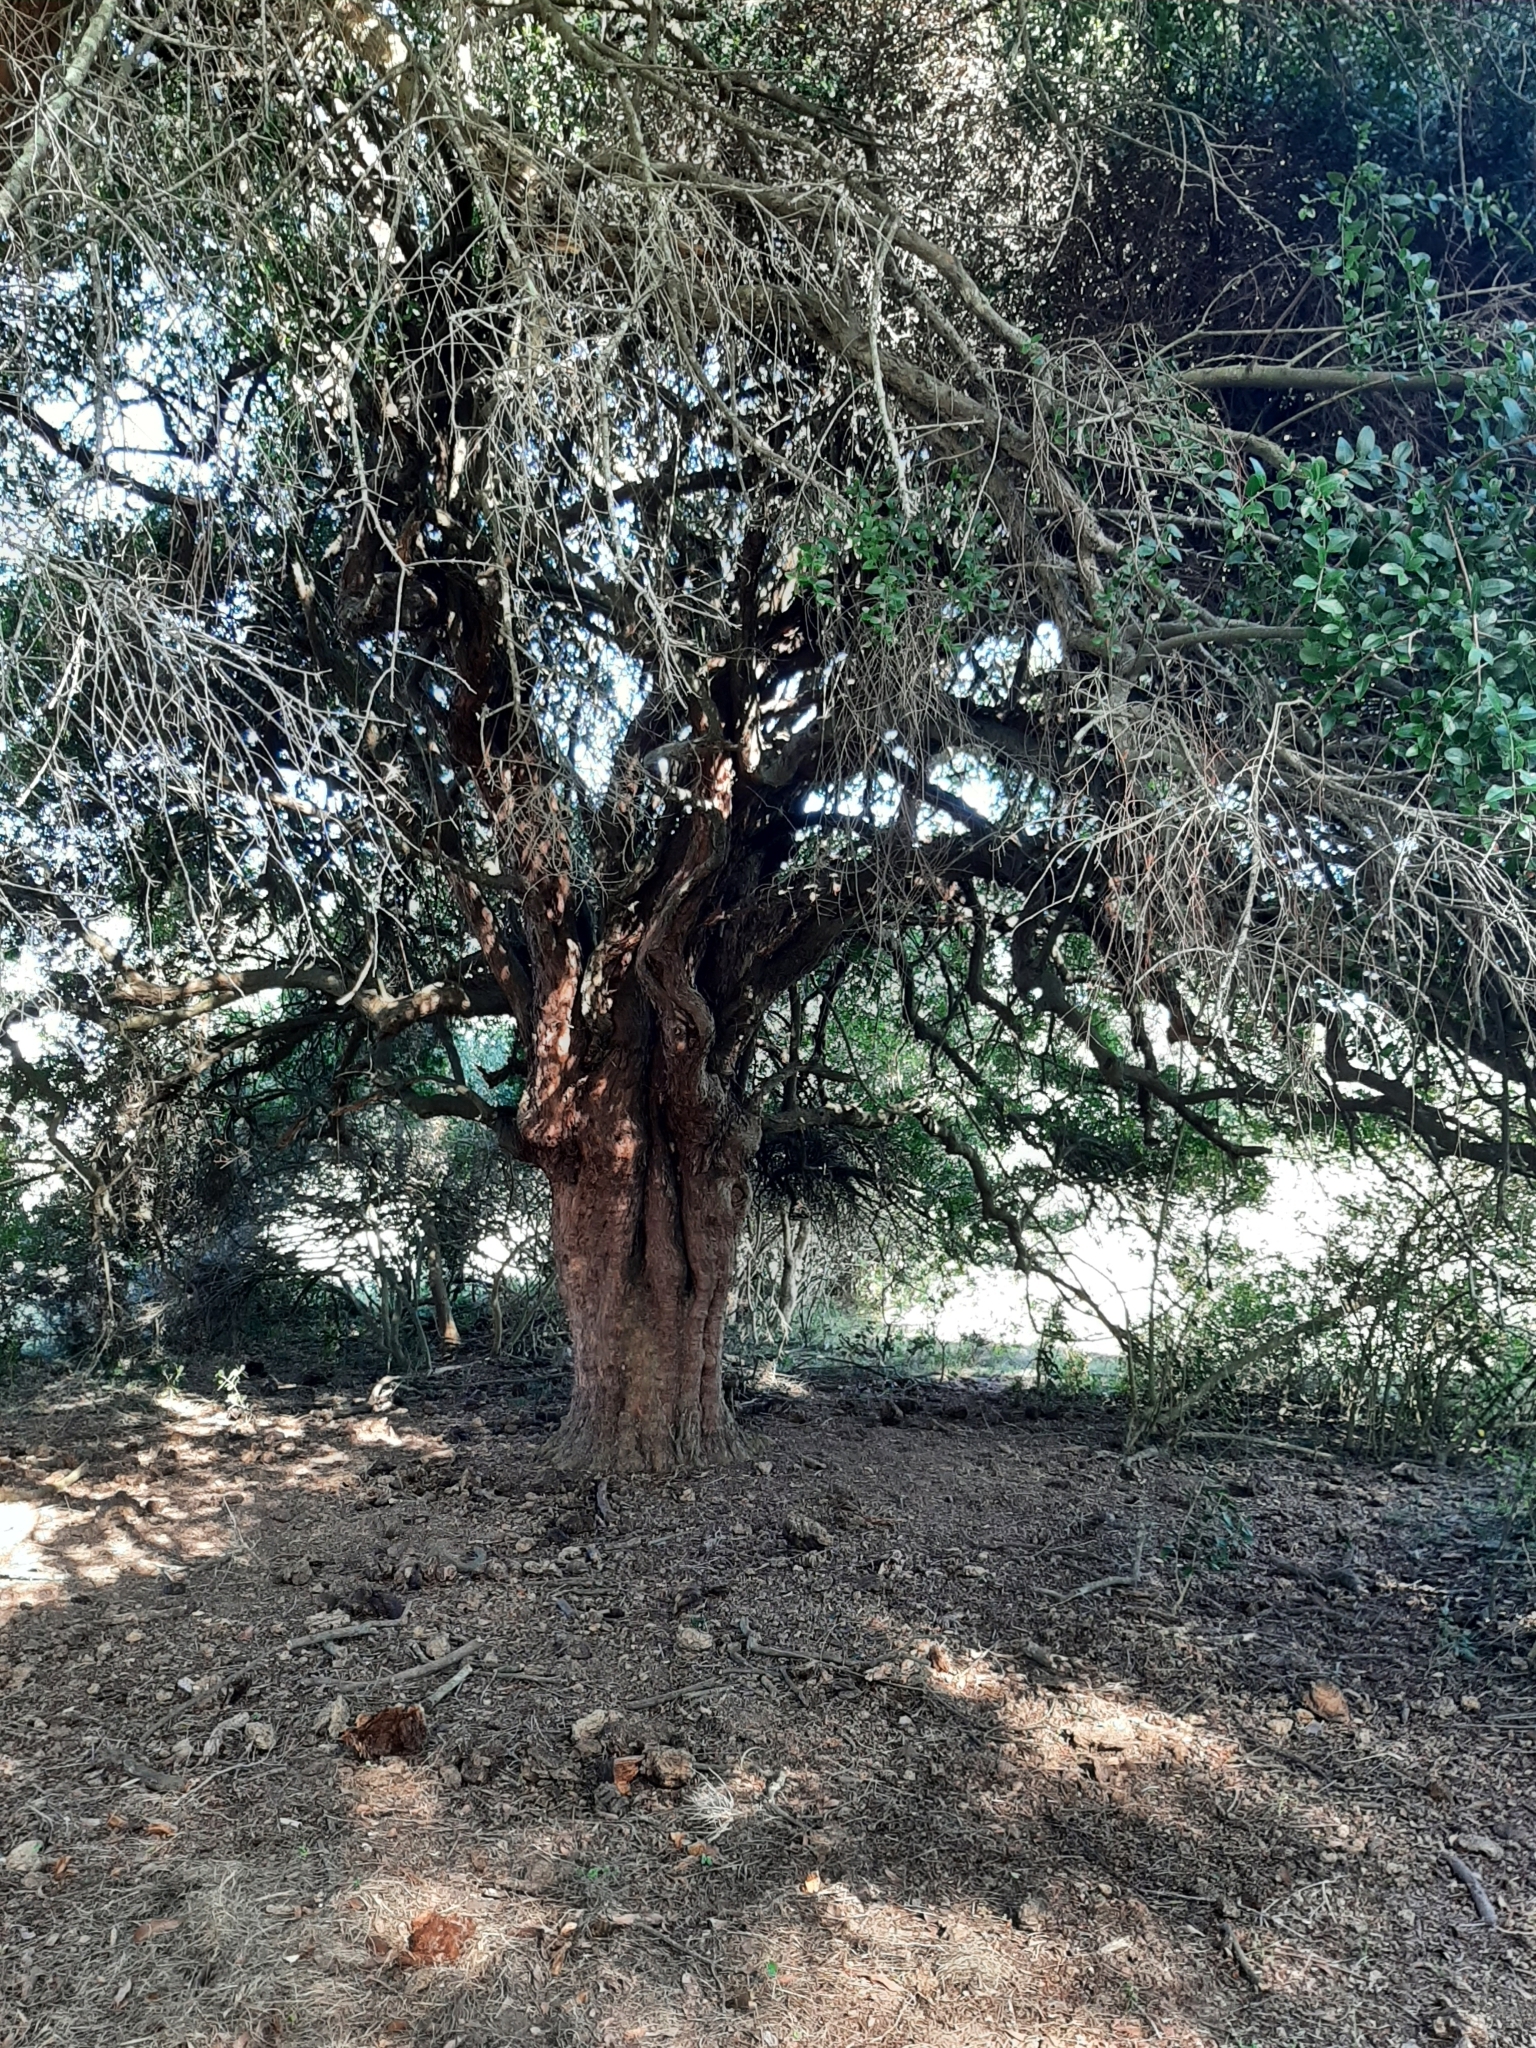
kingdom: Plantae
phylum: Tracheophyta
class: Magnoliopsida
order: Rosales
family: Rhamnaceae
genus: Scutia
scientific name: Scutia buxifolia
